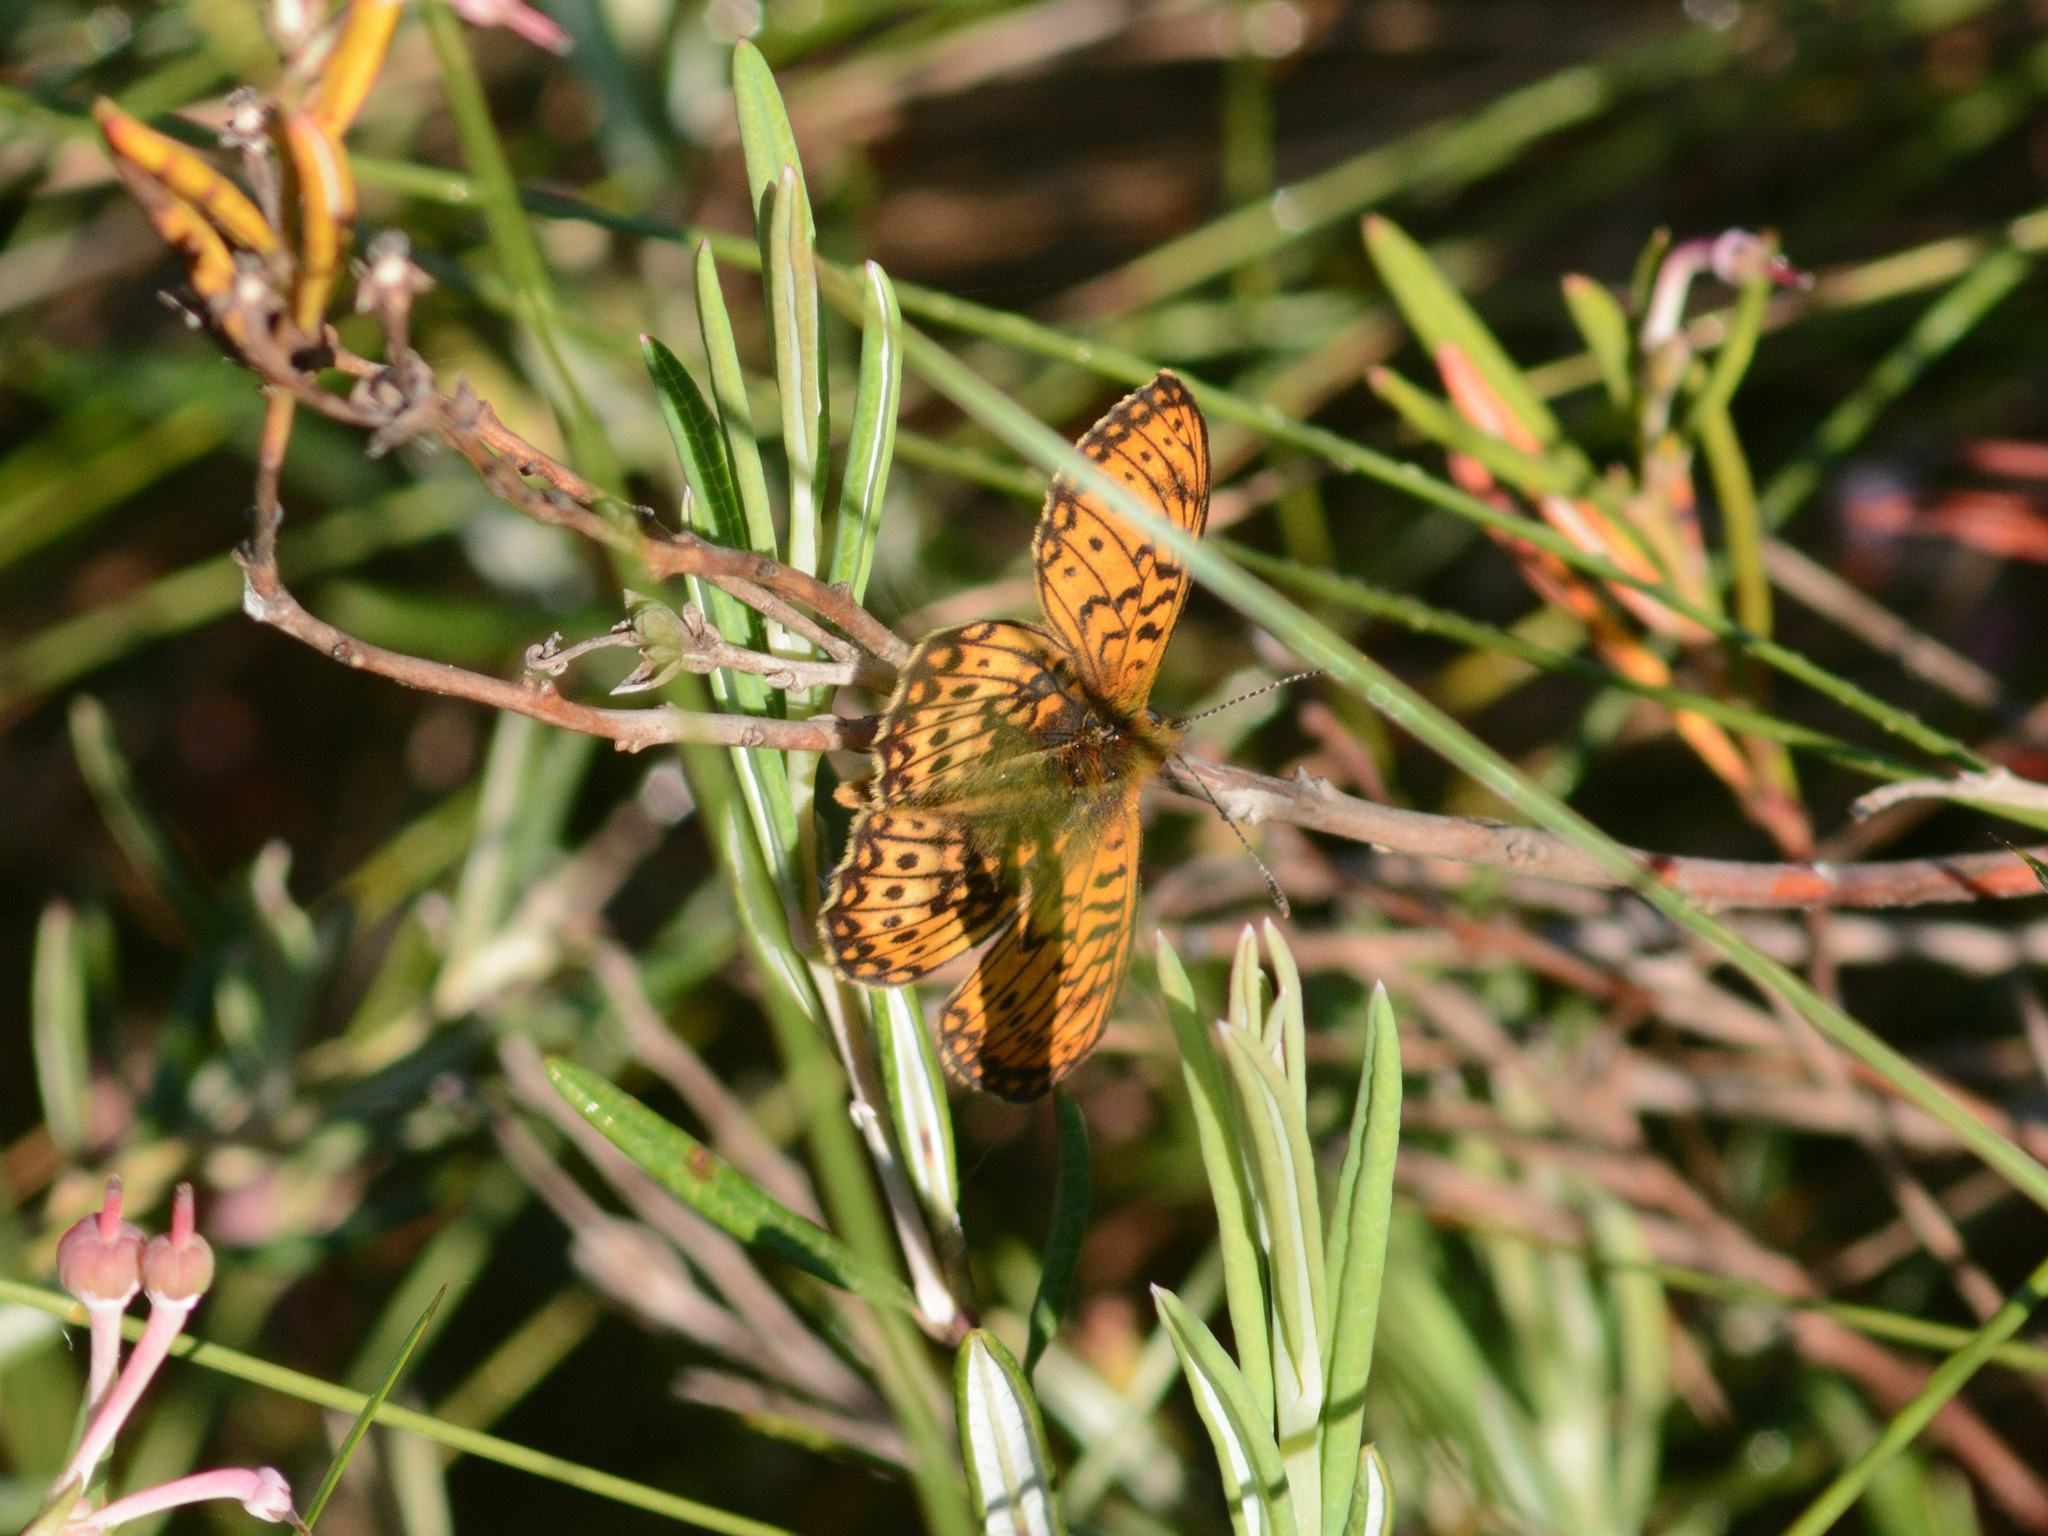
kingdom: Animalia
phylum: Arthropoda
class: Insecta
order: Lepidoptera
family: Nymphalidae
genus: Boloria
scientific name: Boloria eunomia
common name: Bog fritillary
